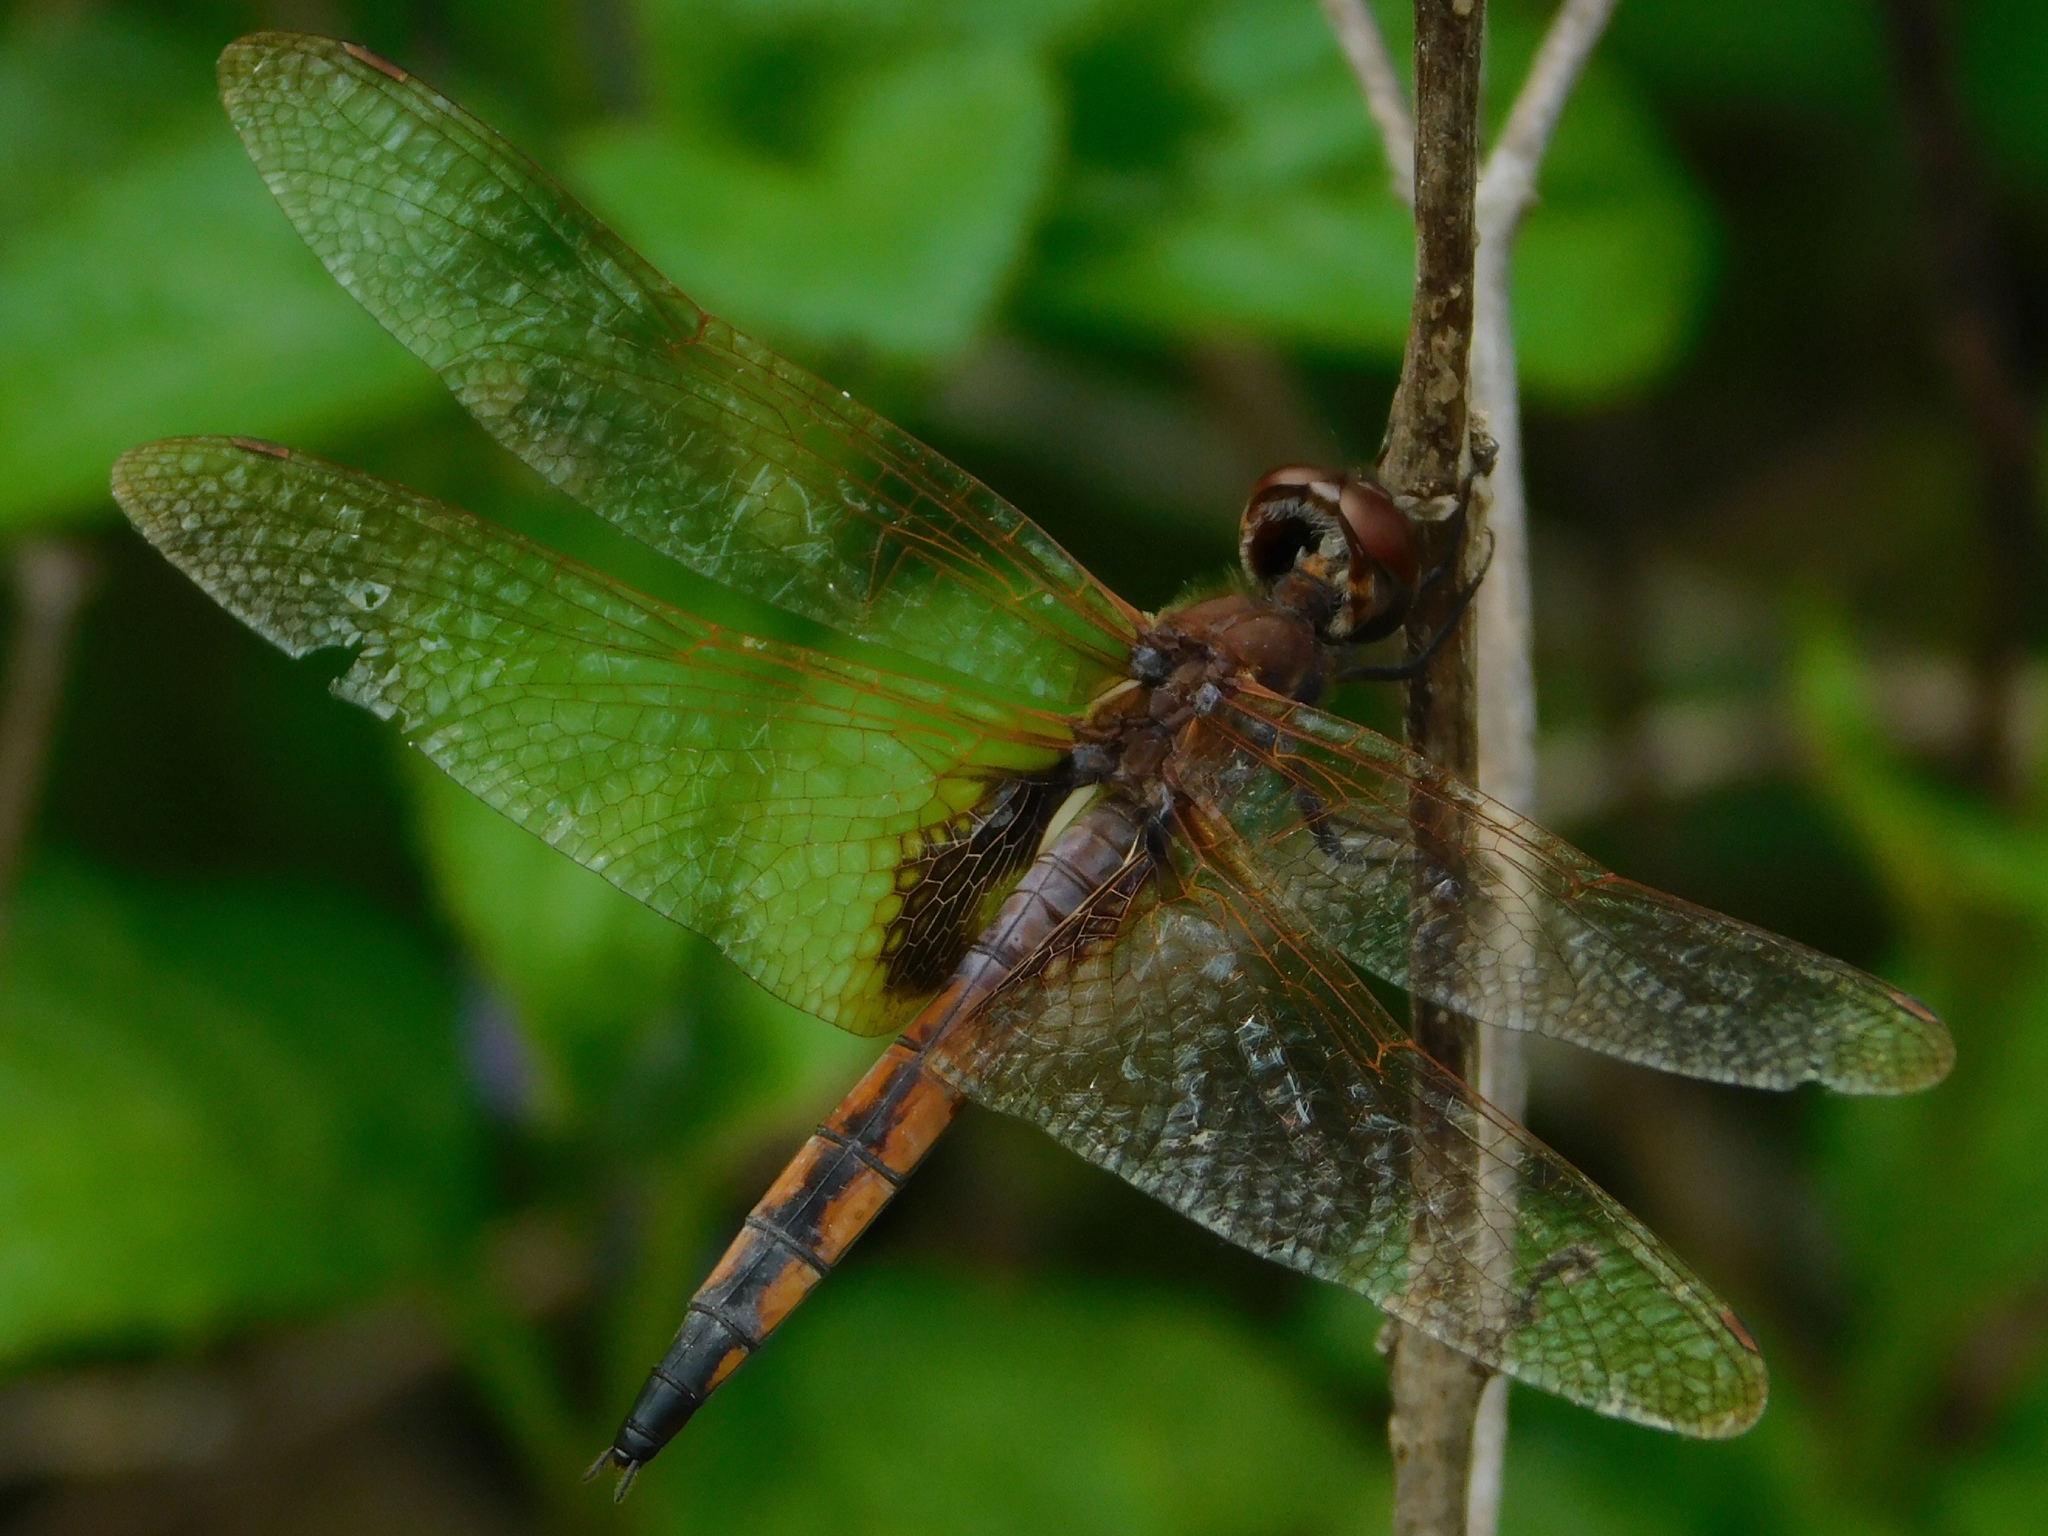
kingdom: Animalia
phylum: Arthropoda
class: Insecta
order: Odonata
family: Libellulidae
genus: Miathyria
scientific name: Miathyria marcella
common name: Hyacinth glider
